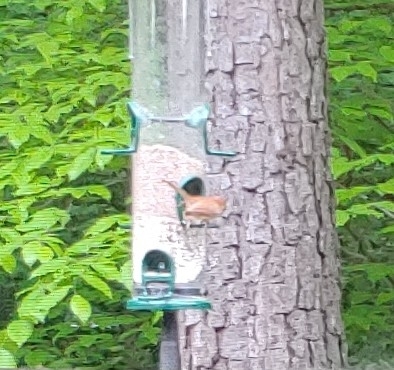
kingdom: Animalia
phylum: Chordata
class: Aves
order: Passeriformes
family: Troglodytidae
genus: Thryothorus
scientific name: Thryothorus ludovicianus
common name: Carolina wren
